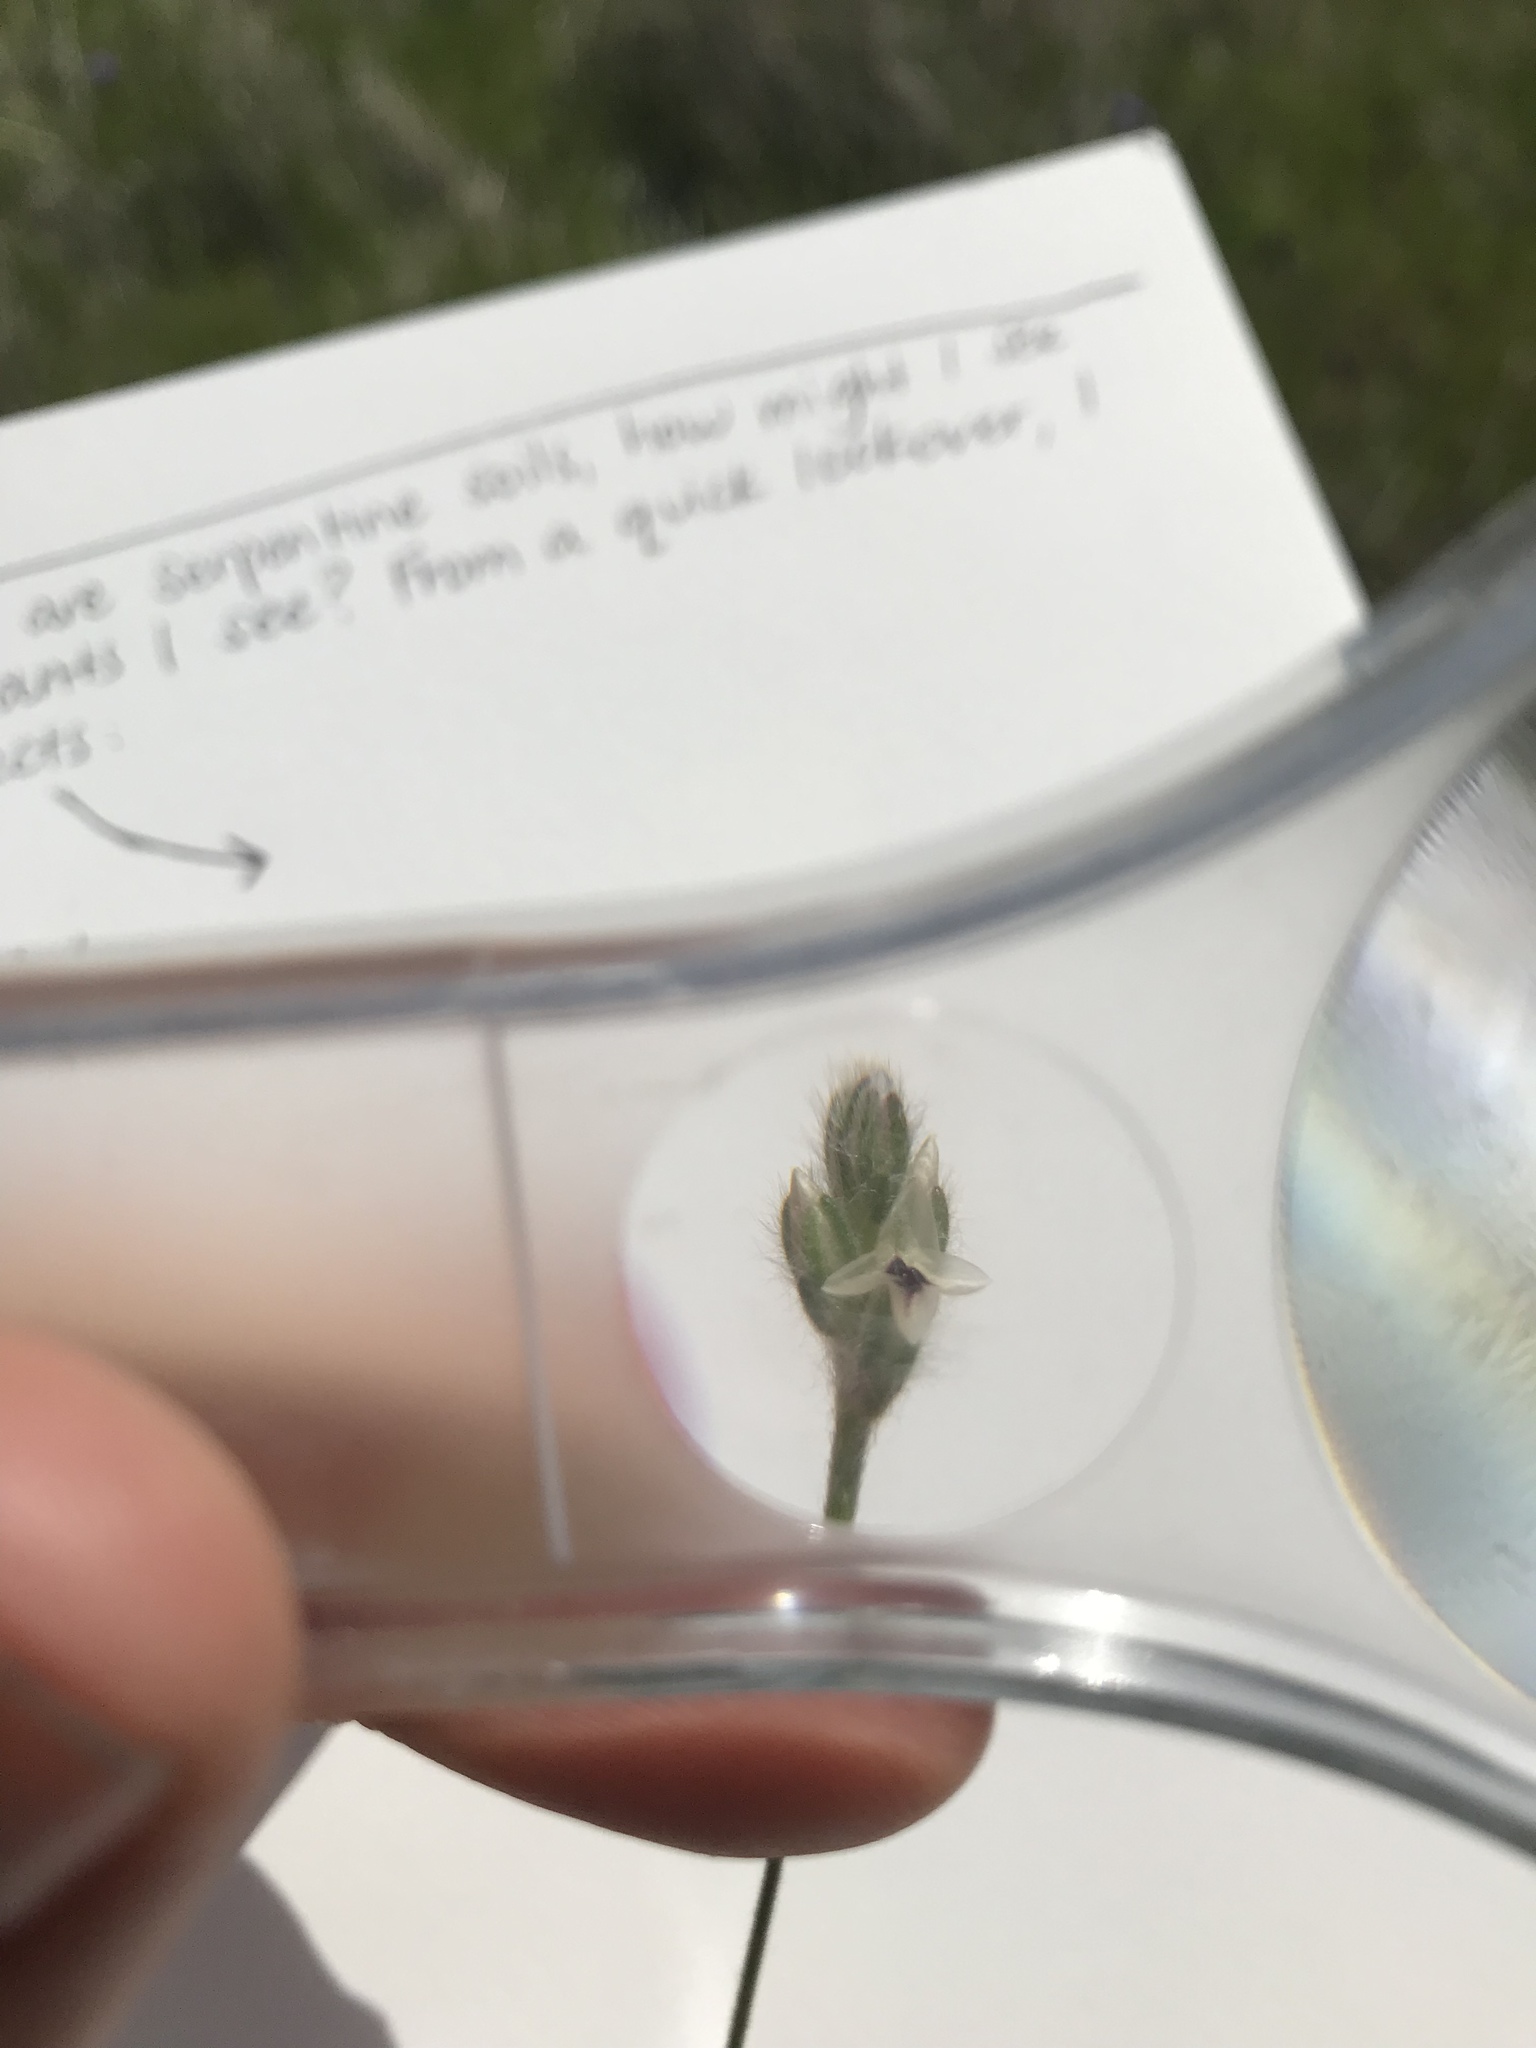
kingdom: Plantae
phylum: Tracheophyta
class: Magnoliopsida
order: Lamiales
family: Plantaginaceae
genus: Plantago
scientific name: Plantago erecta
